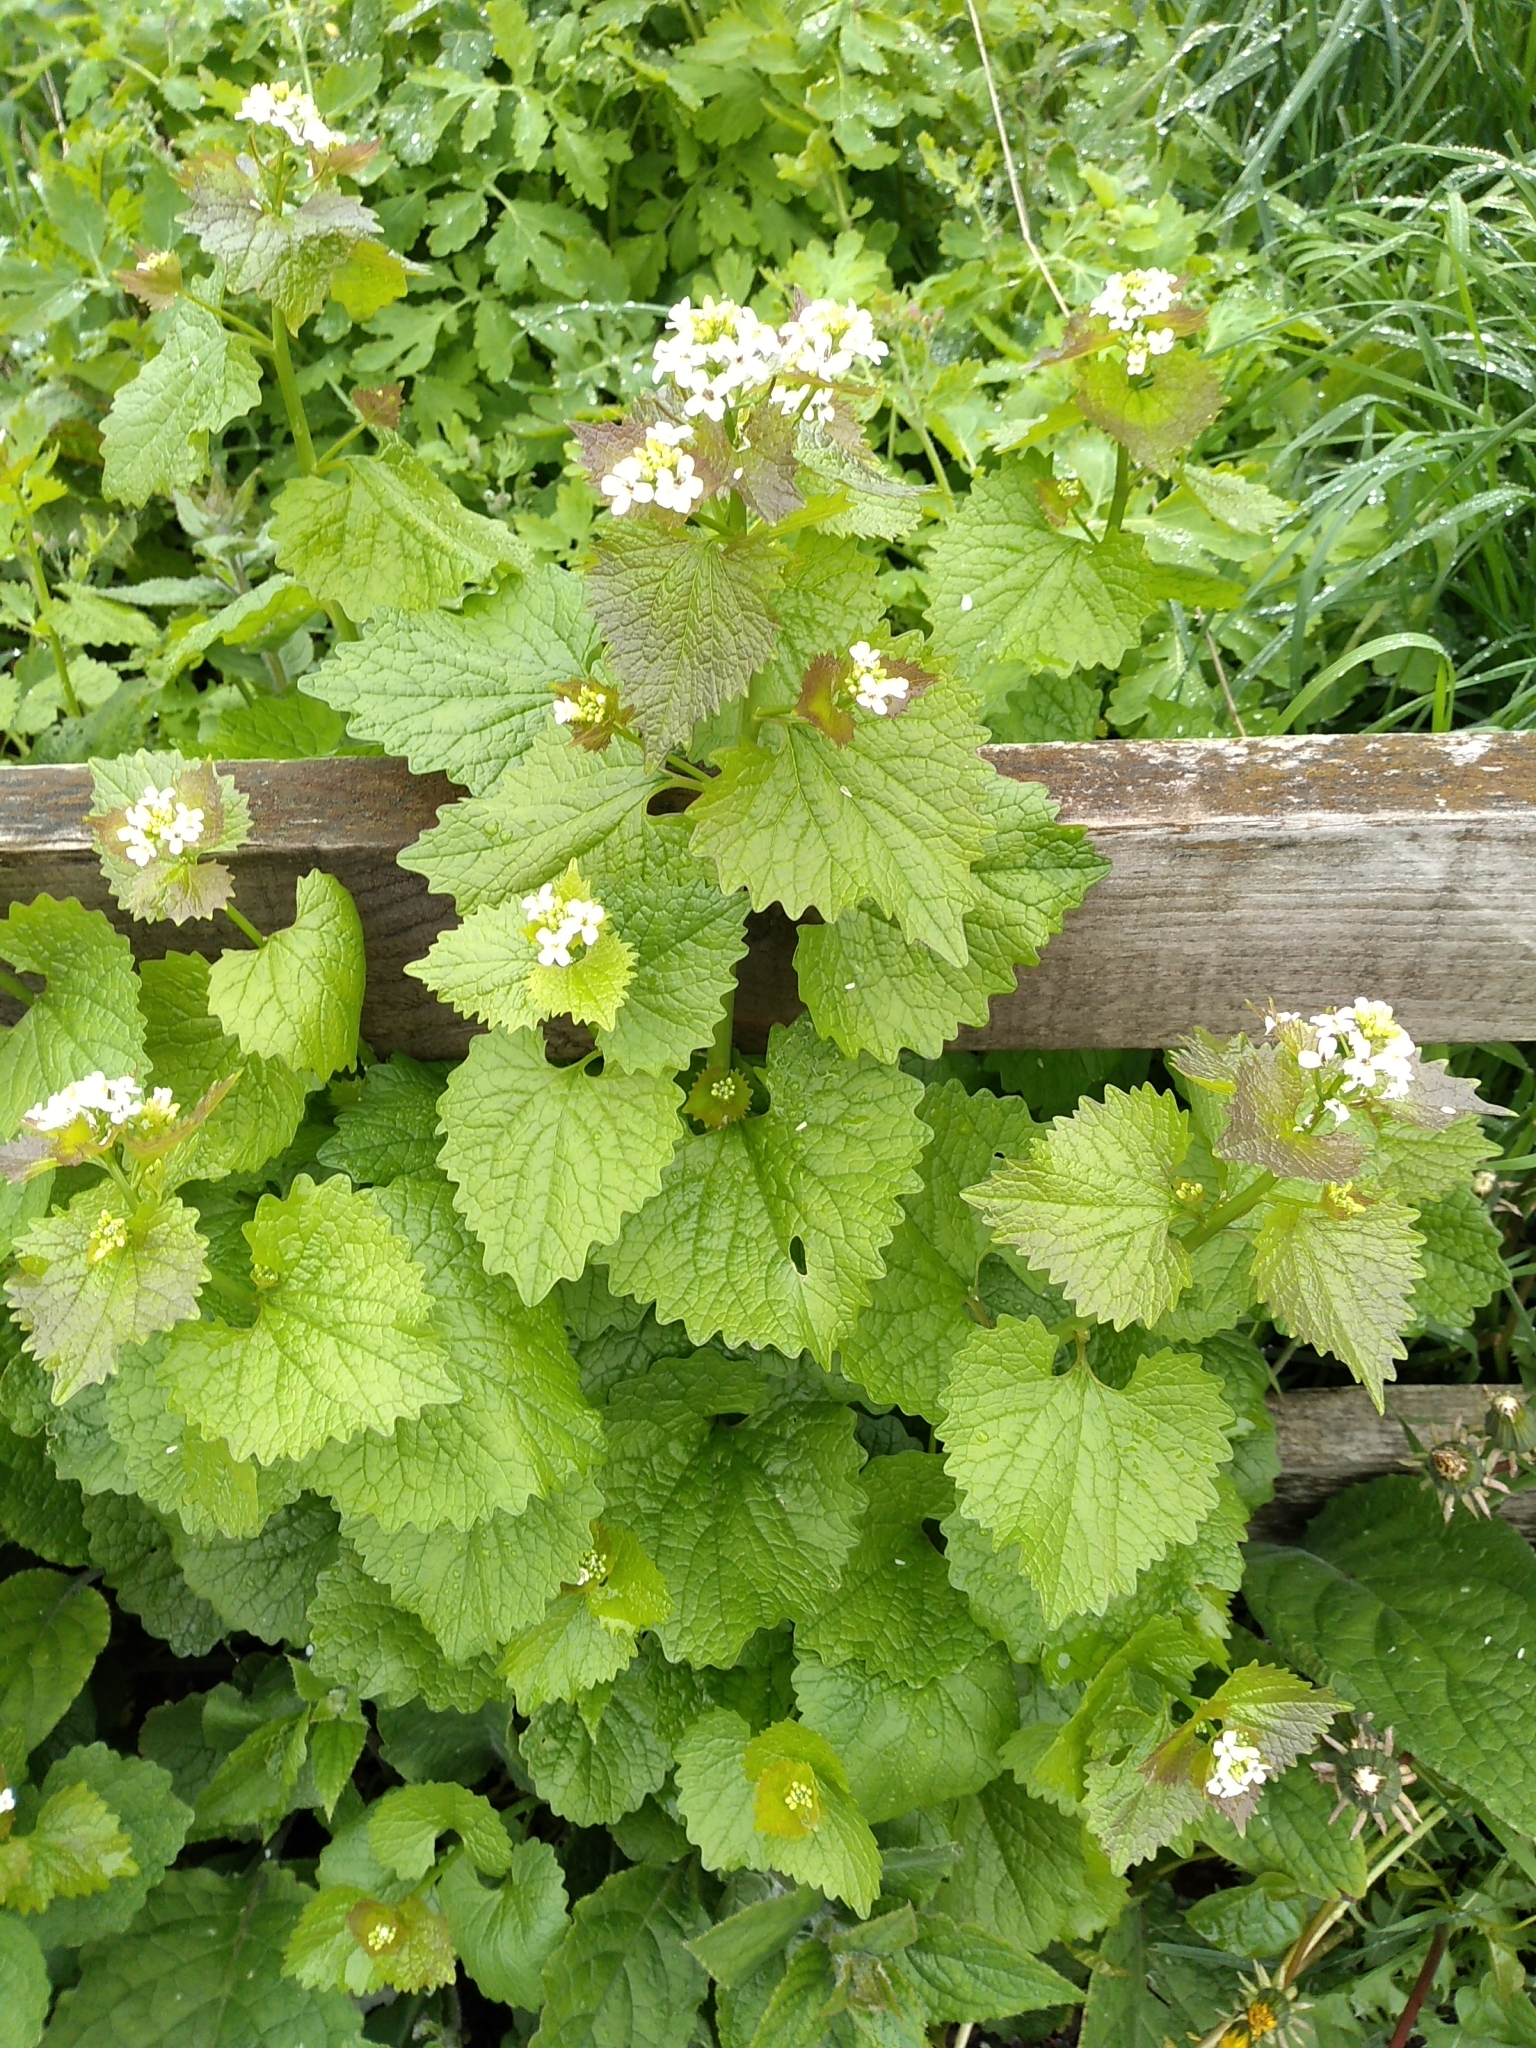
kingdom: Plantae
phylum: Tracheophyta
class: Magnoliopsida
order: Brassicales
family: Brassicaceae
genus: Alliaria
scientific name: Alliaria petiolata
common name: Garlic mustard
